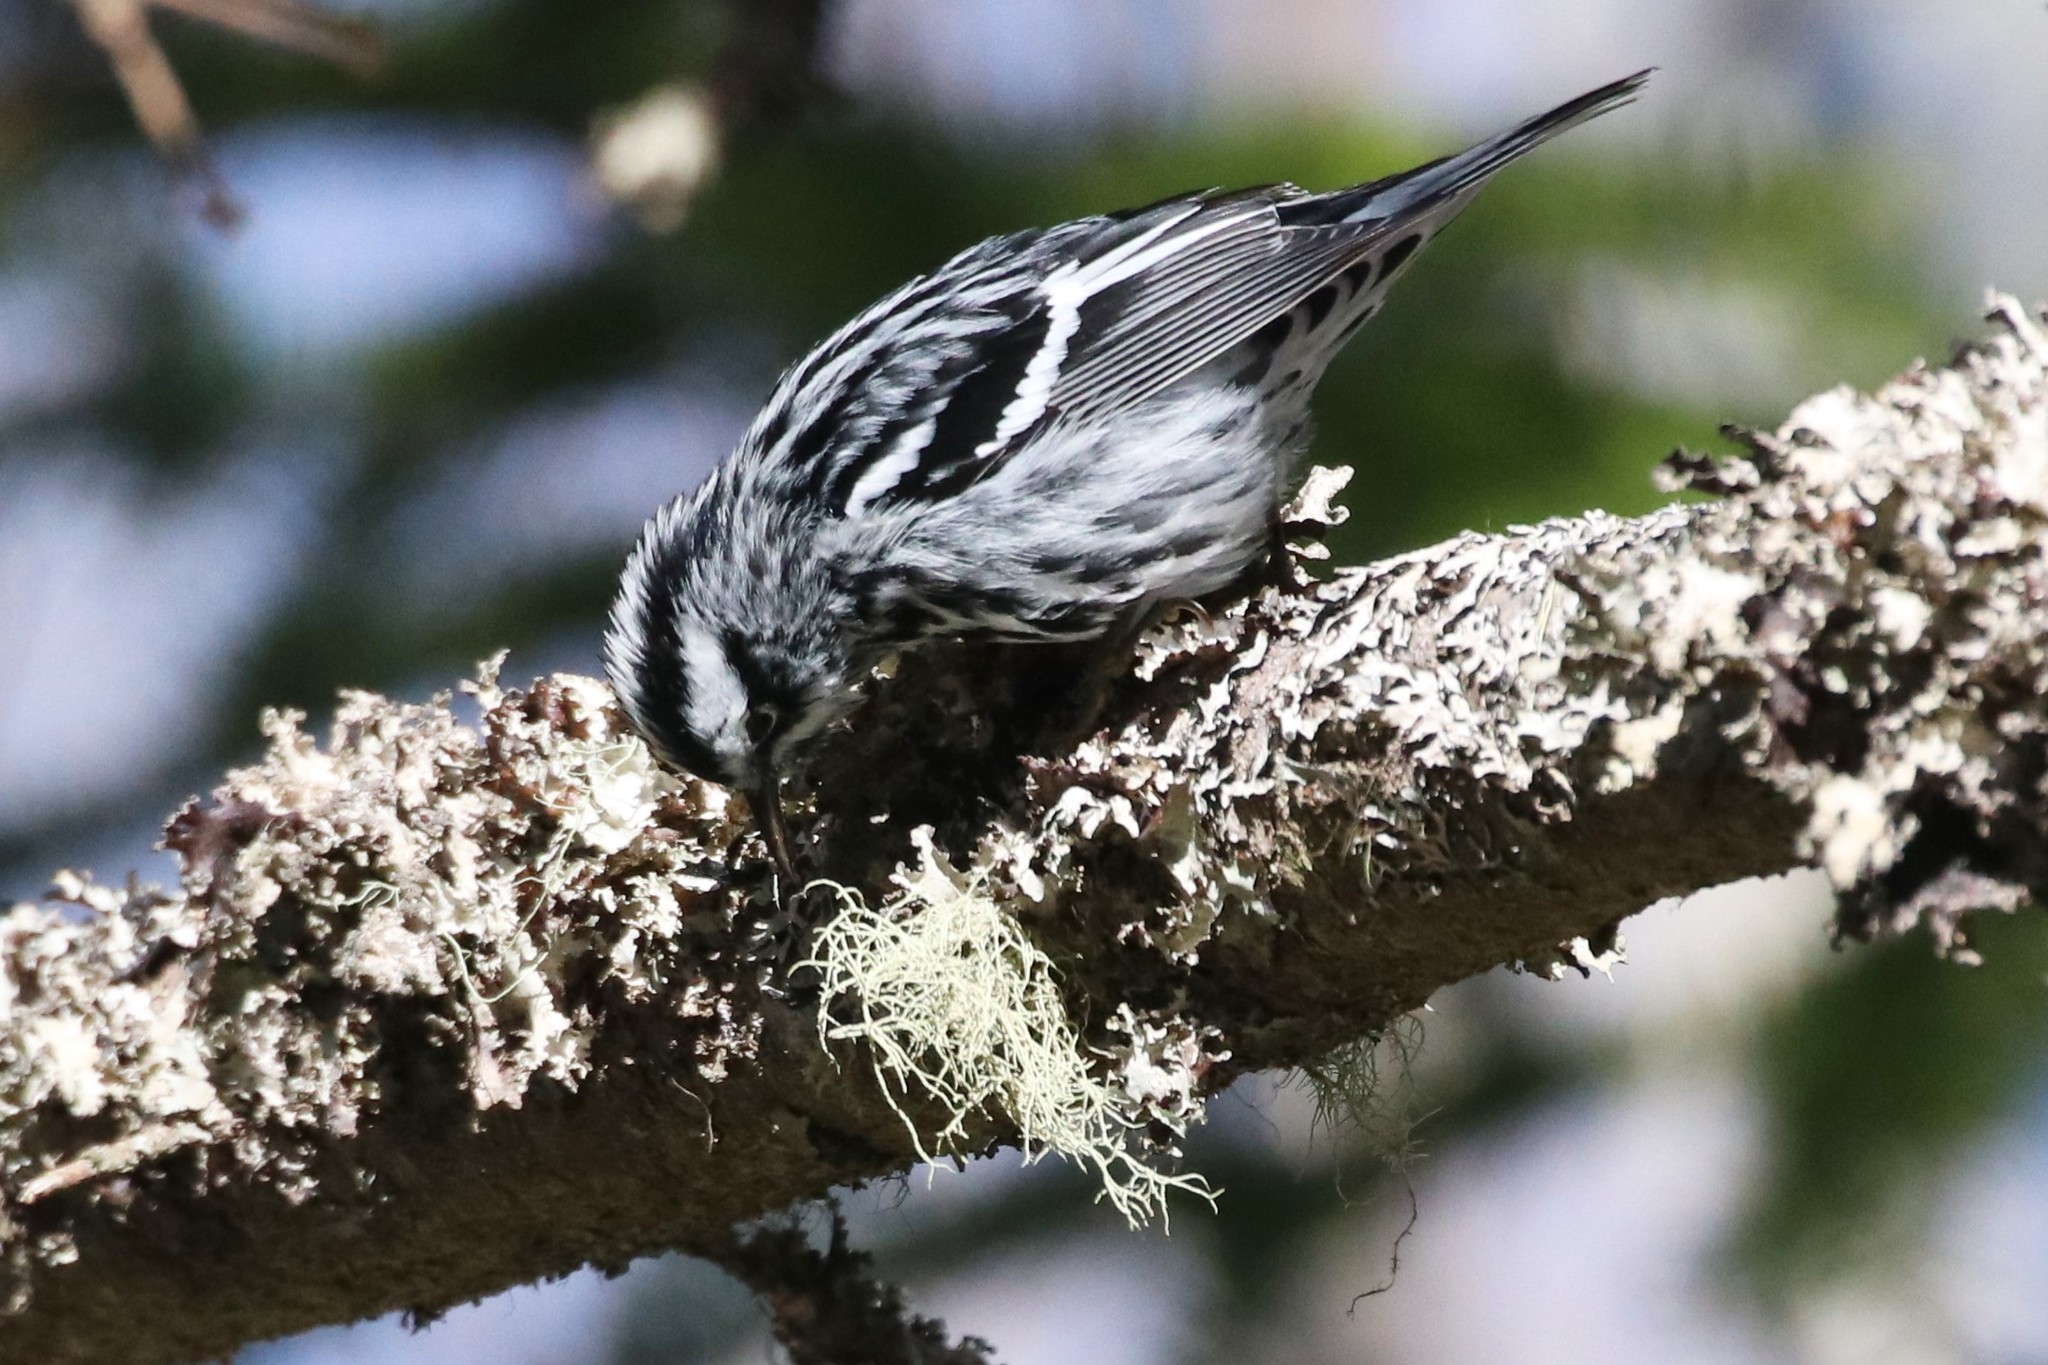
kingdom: Animalia
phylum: Chordata
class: Aves
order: Passeriformes
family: Parulidae
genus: Mniotilta
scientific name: Mniotilta varia
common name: Black-and-white warbler
